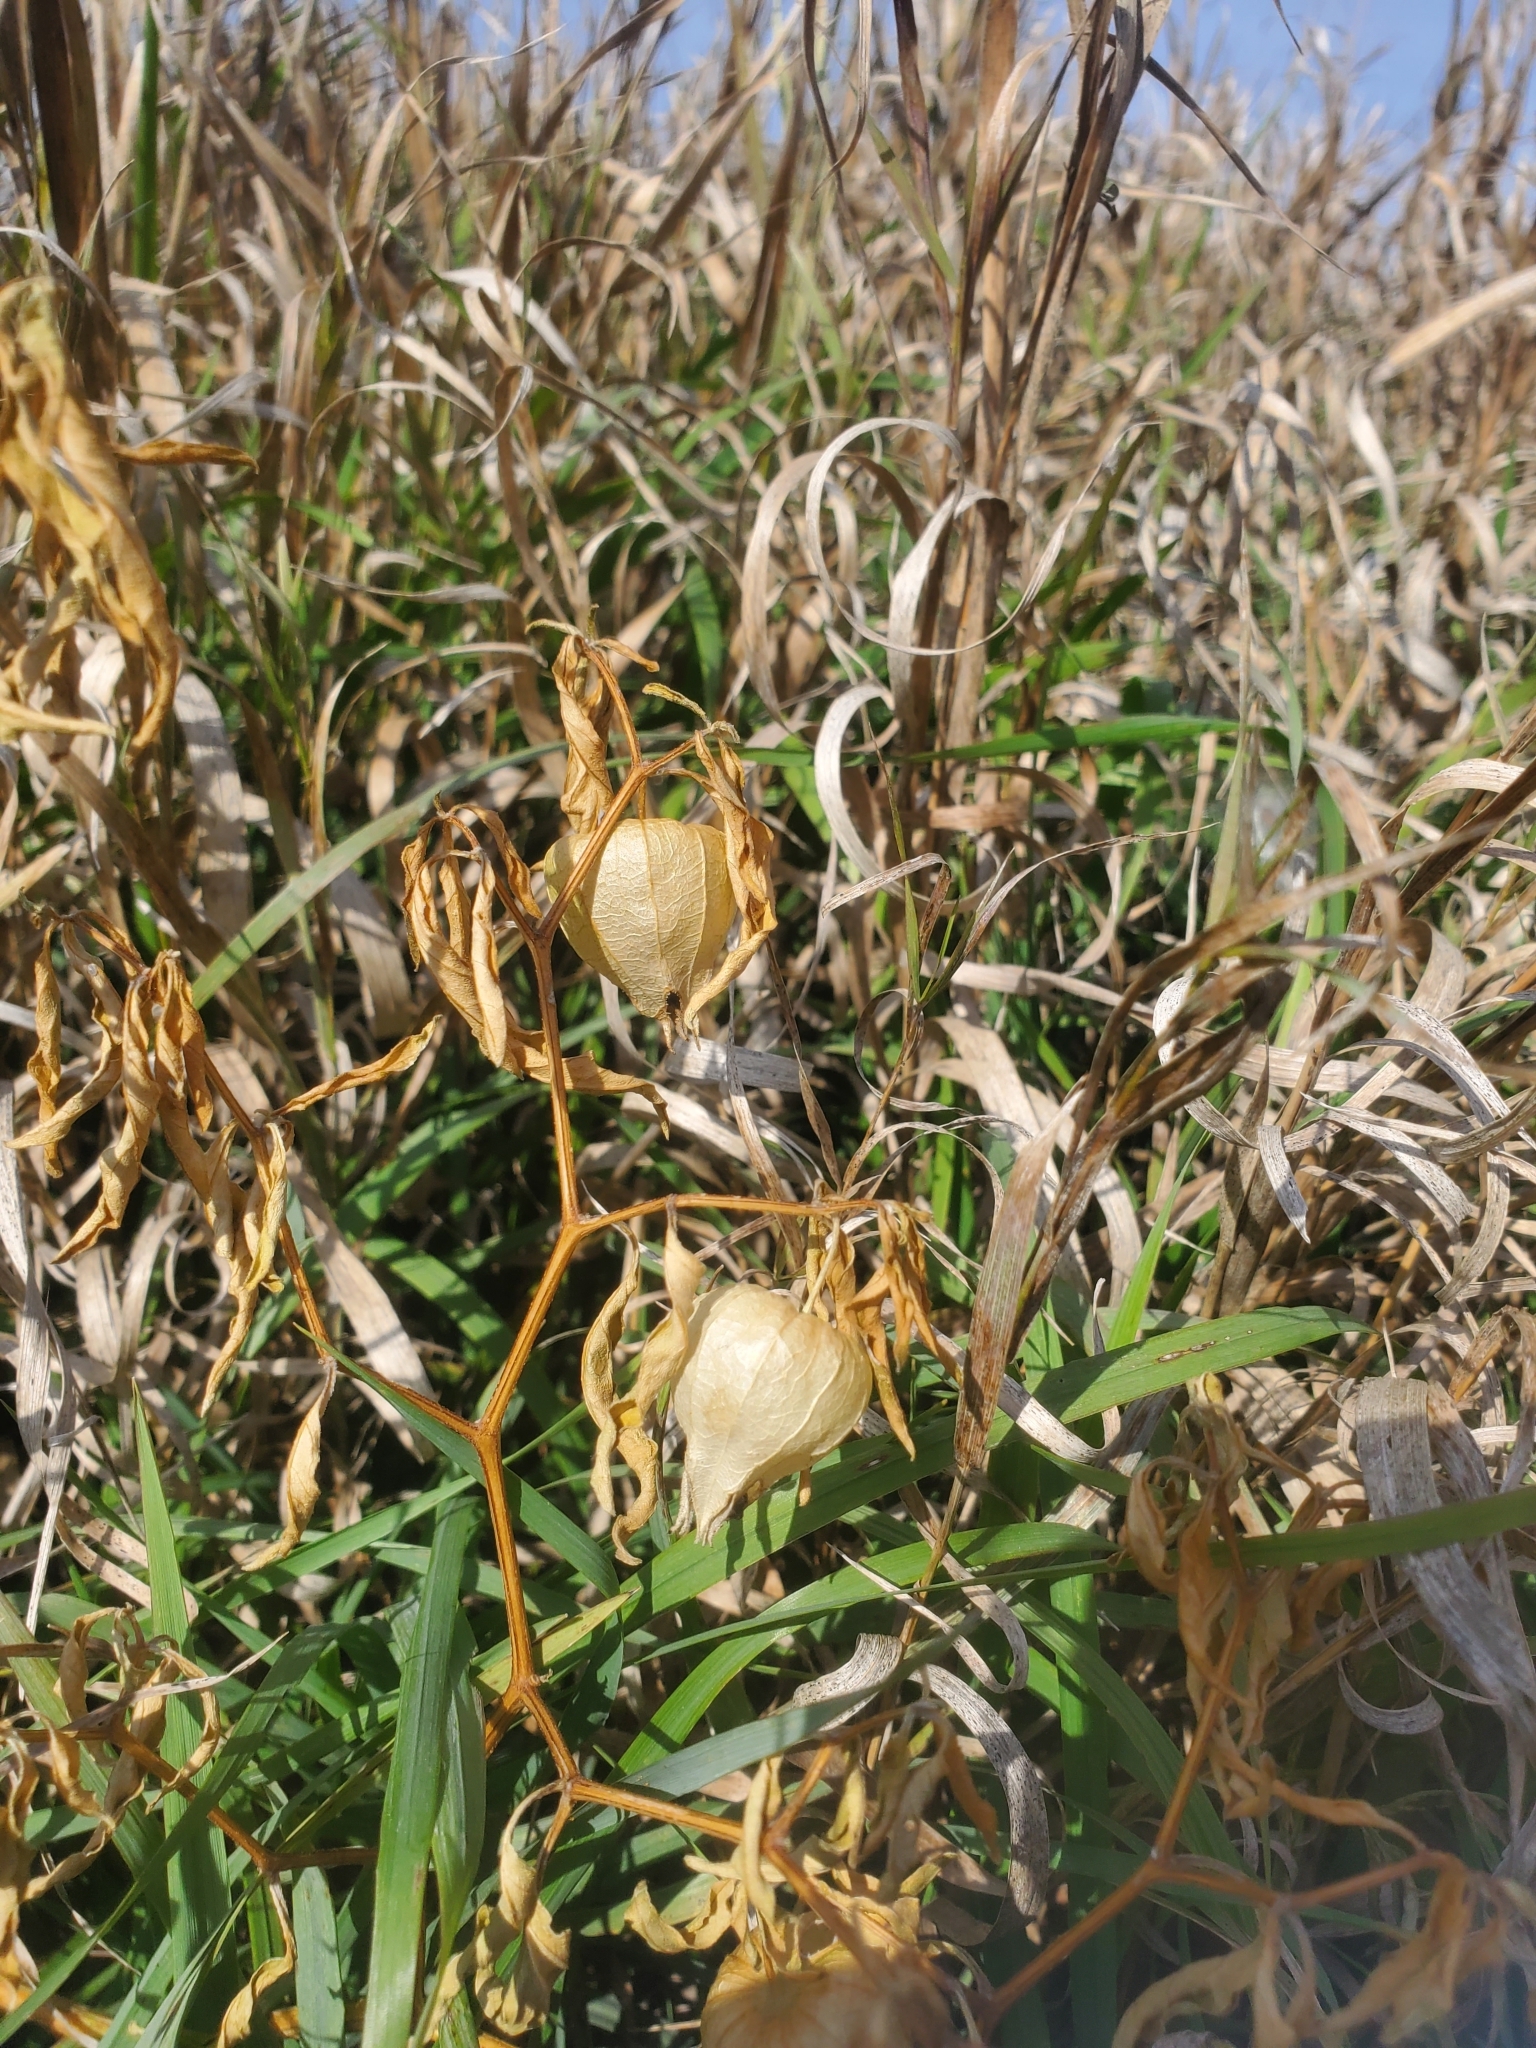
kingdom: Plantae
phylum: Tracheophyta
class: Magnoliopsida
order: Solanales
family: Solanaceae
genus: Physalis
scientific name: Physalis longifolia
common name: Common ground-cherry
